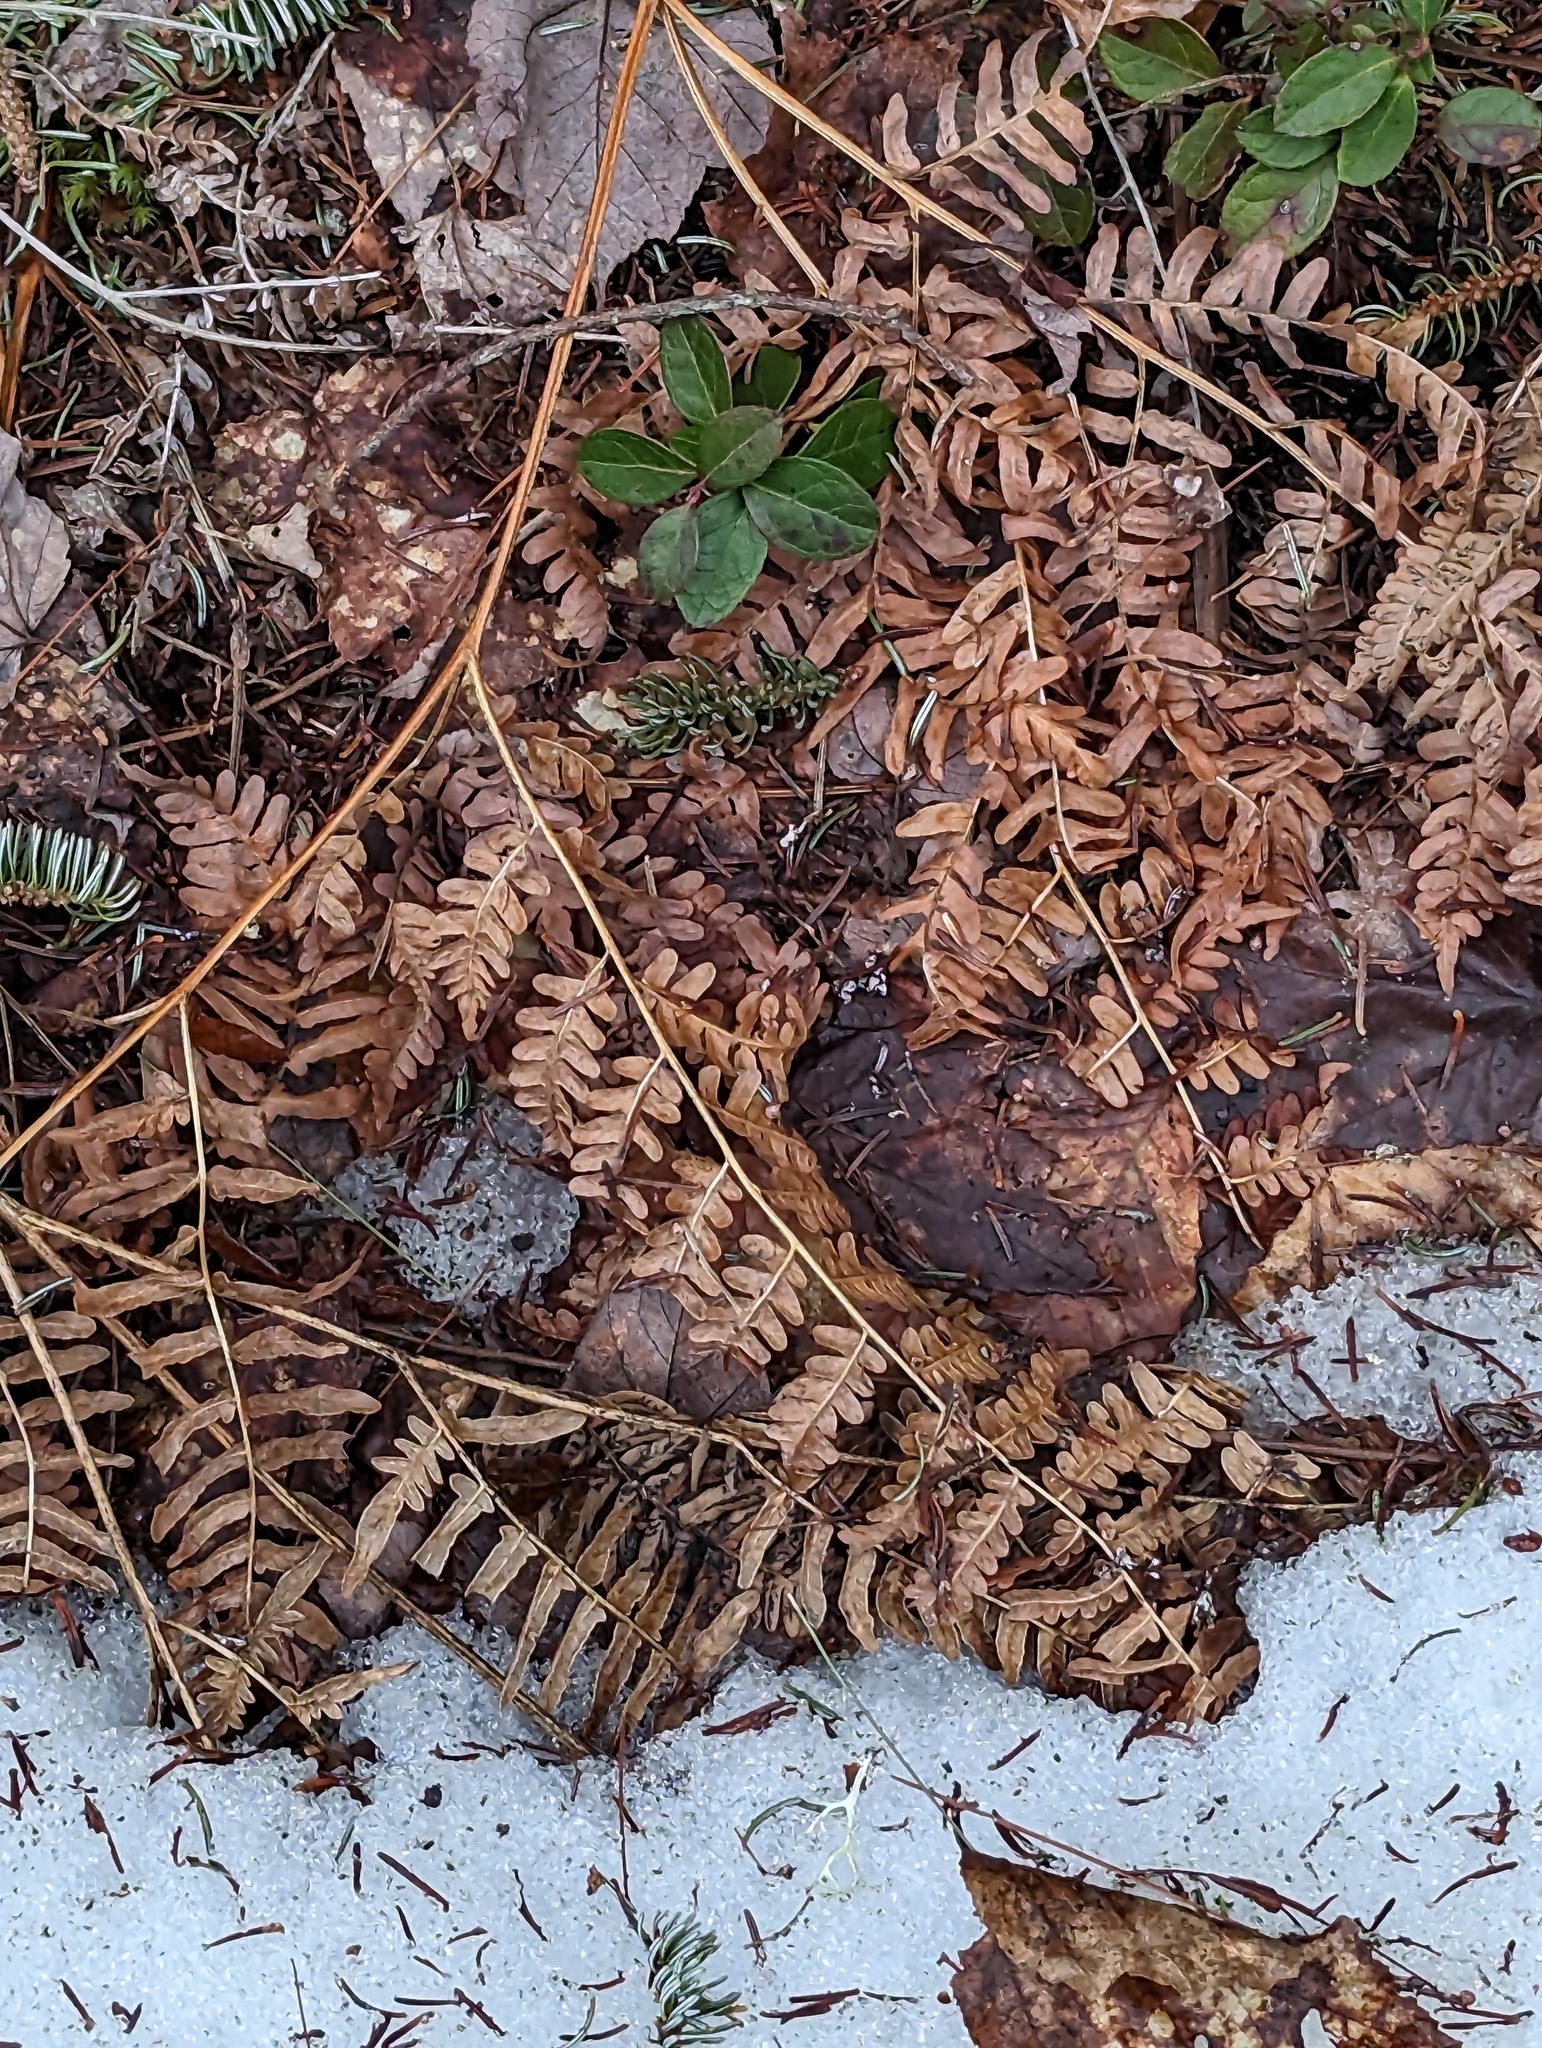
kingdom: Plantae
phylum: Tracheophyta
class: Polypodiopsida
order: Polypodiales
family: Dennstaedtiaceae
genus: Pteridium
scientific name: Pteridium aquilinum
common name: Bracken
